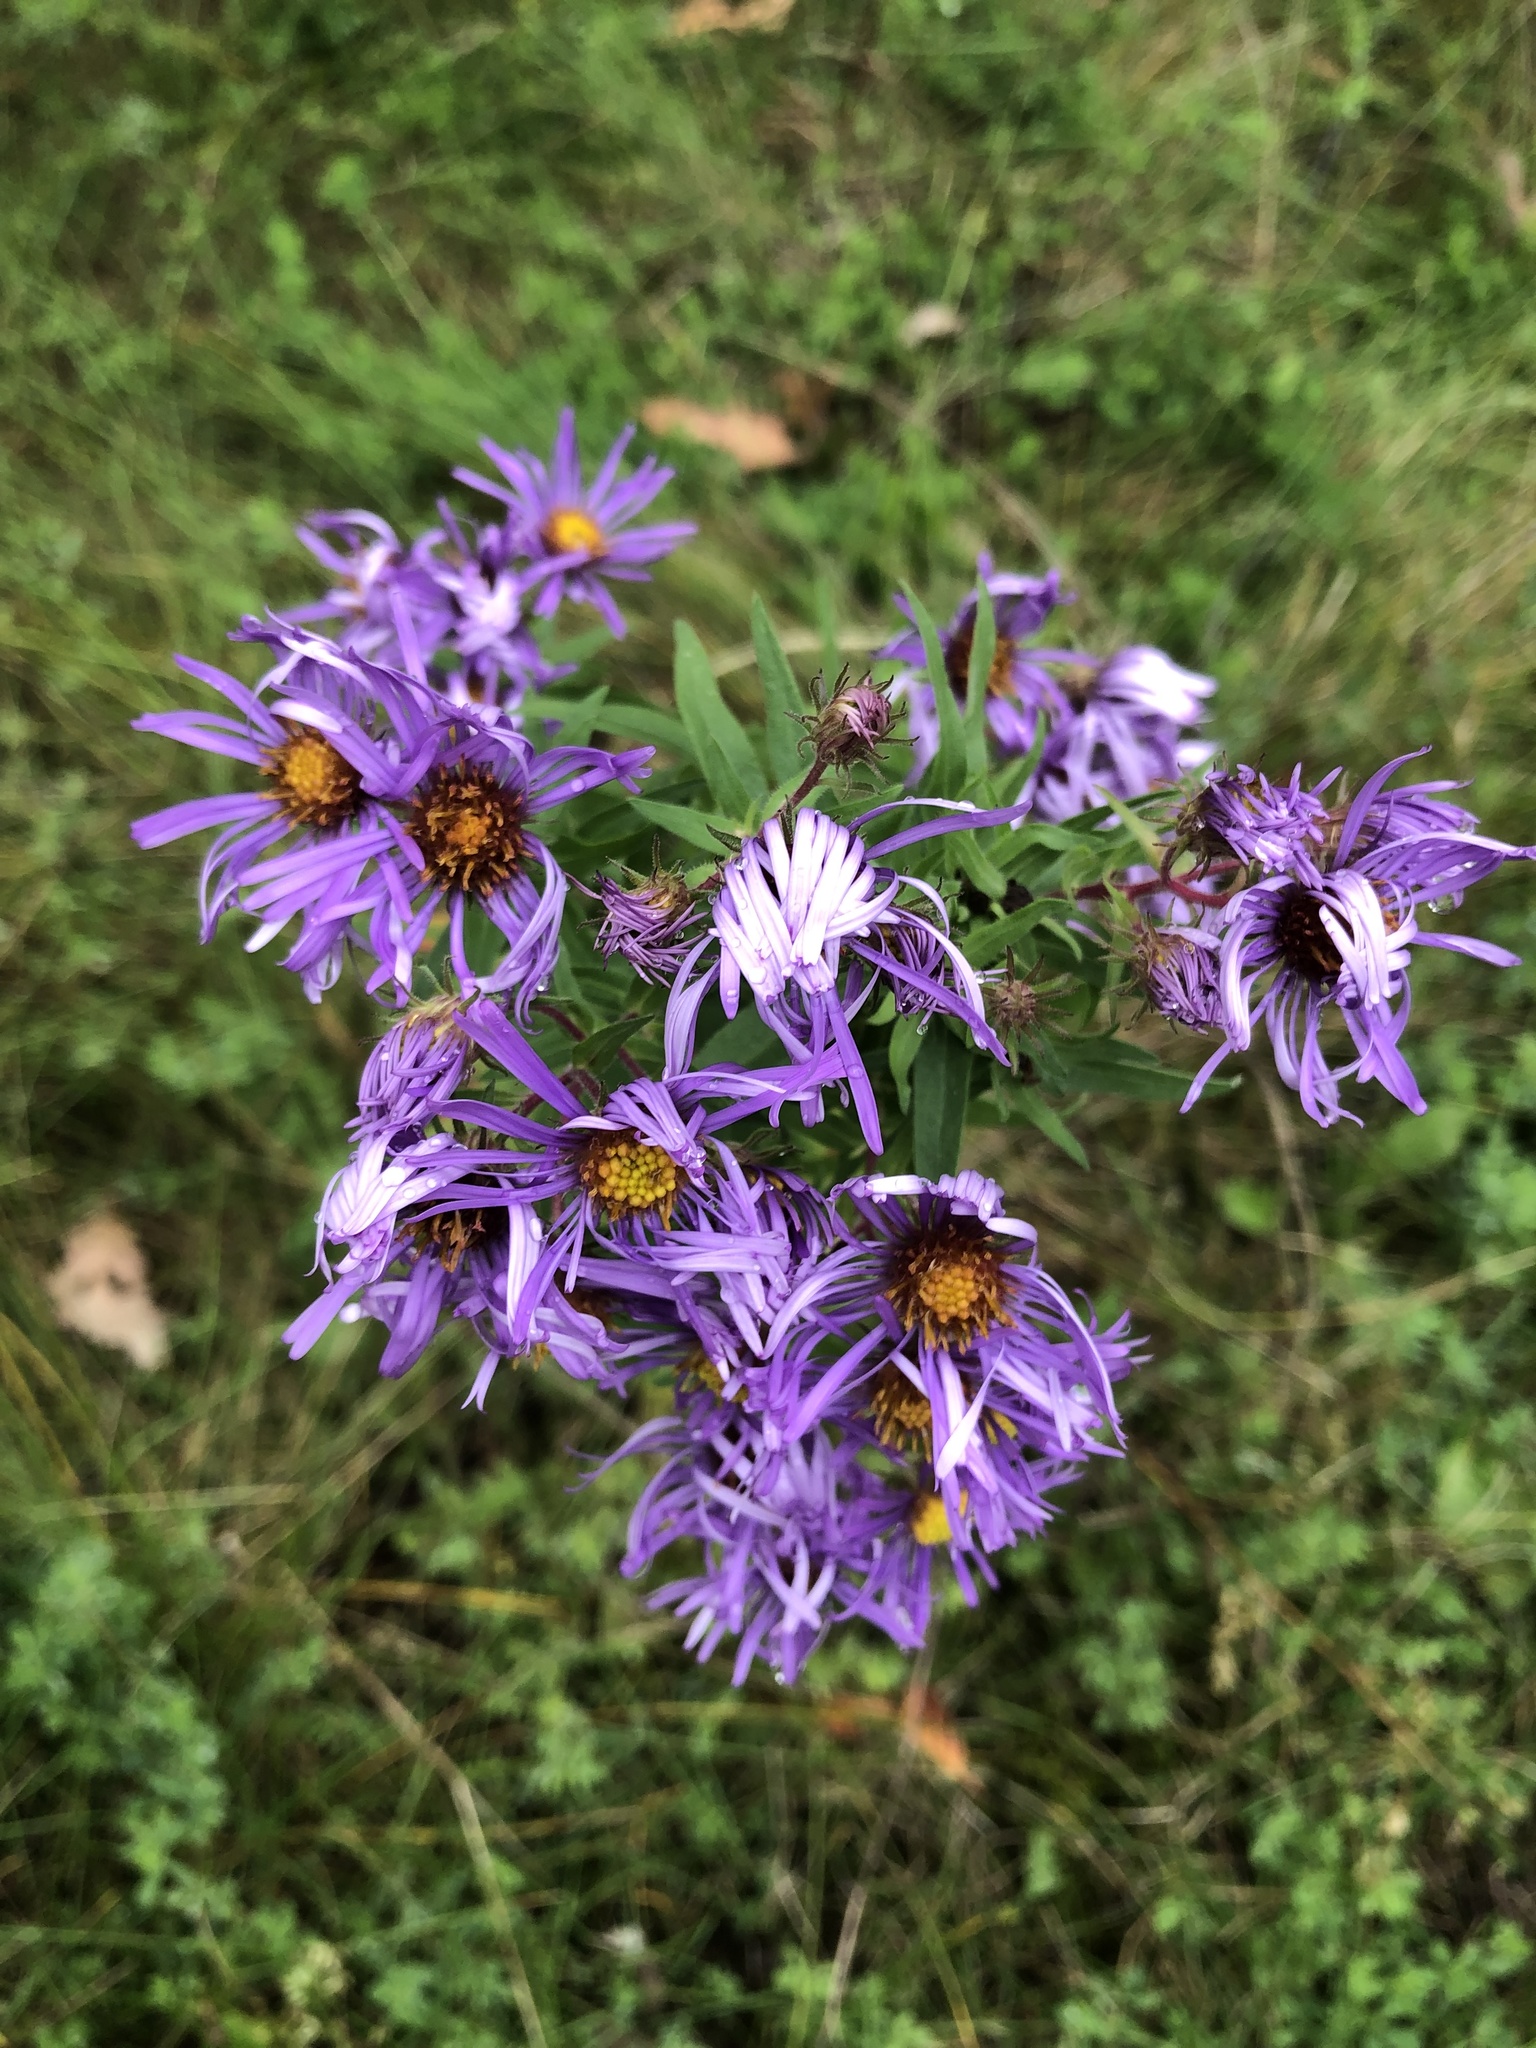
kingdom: Plantae
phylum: Tracheophyta
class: Magnoliopsida
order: Asterales
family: Asteraceae
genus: Symphyotrichum
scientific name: Symphyotrichum novae-angliae
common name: Michaelmas daisy
